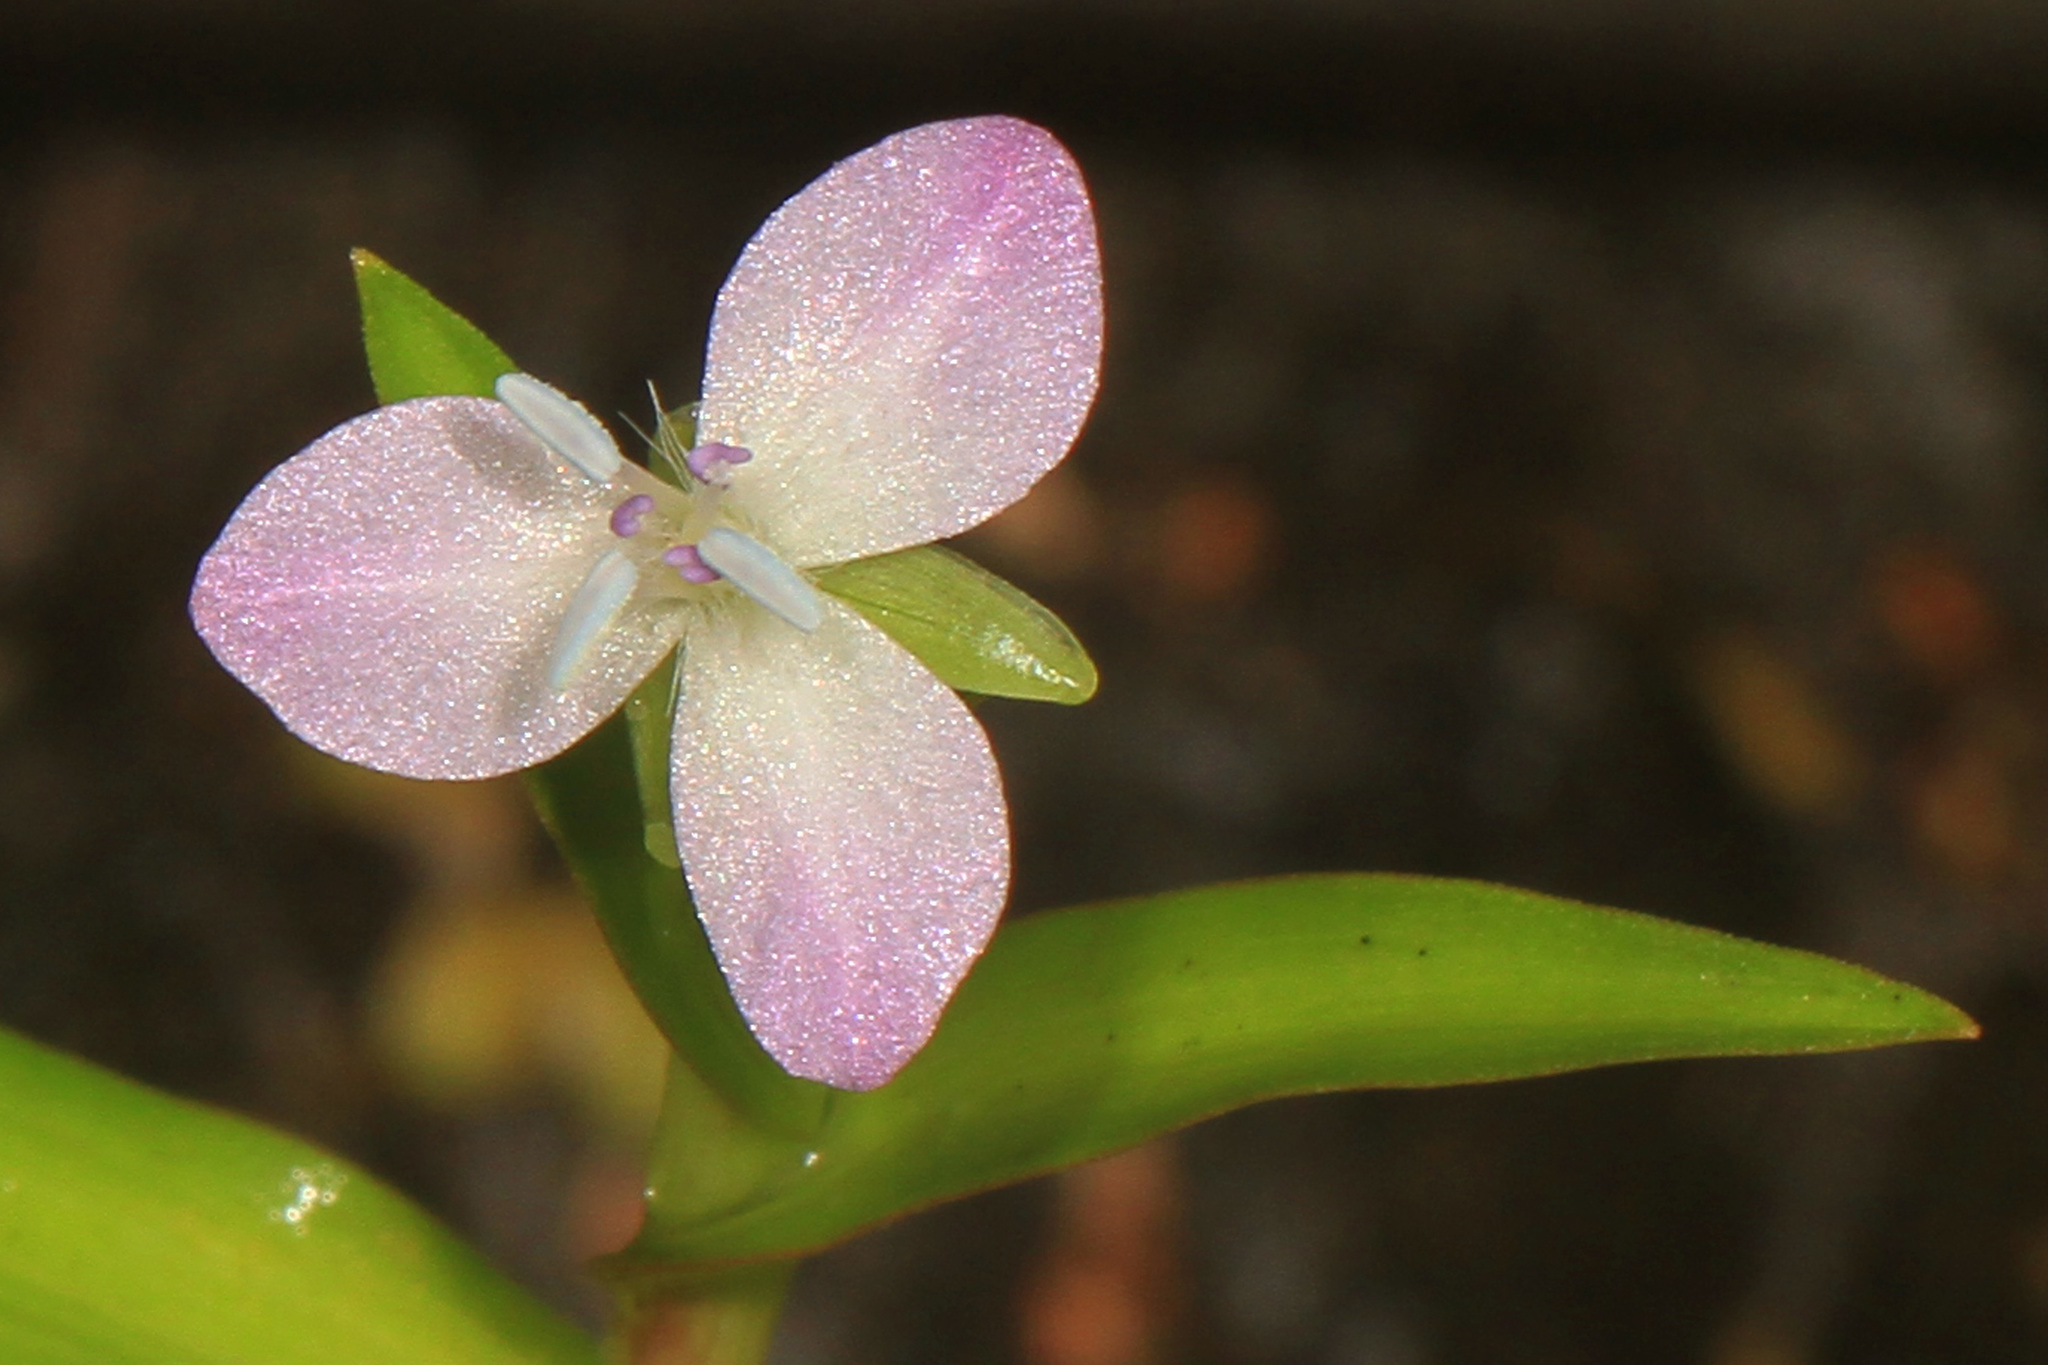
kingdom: Plantae
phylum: Tracheophyta
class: Liliopsida
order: Commelinales
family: Commelinaceae
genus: Murdannia
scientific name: Murdannia keisak
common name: Wartremoving herb
